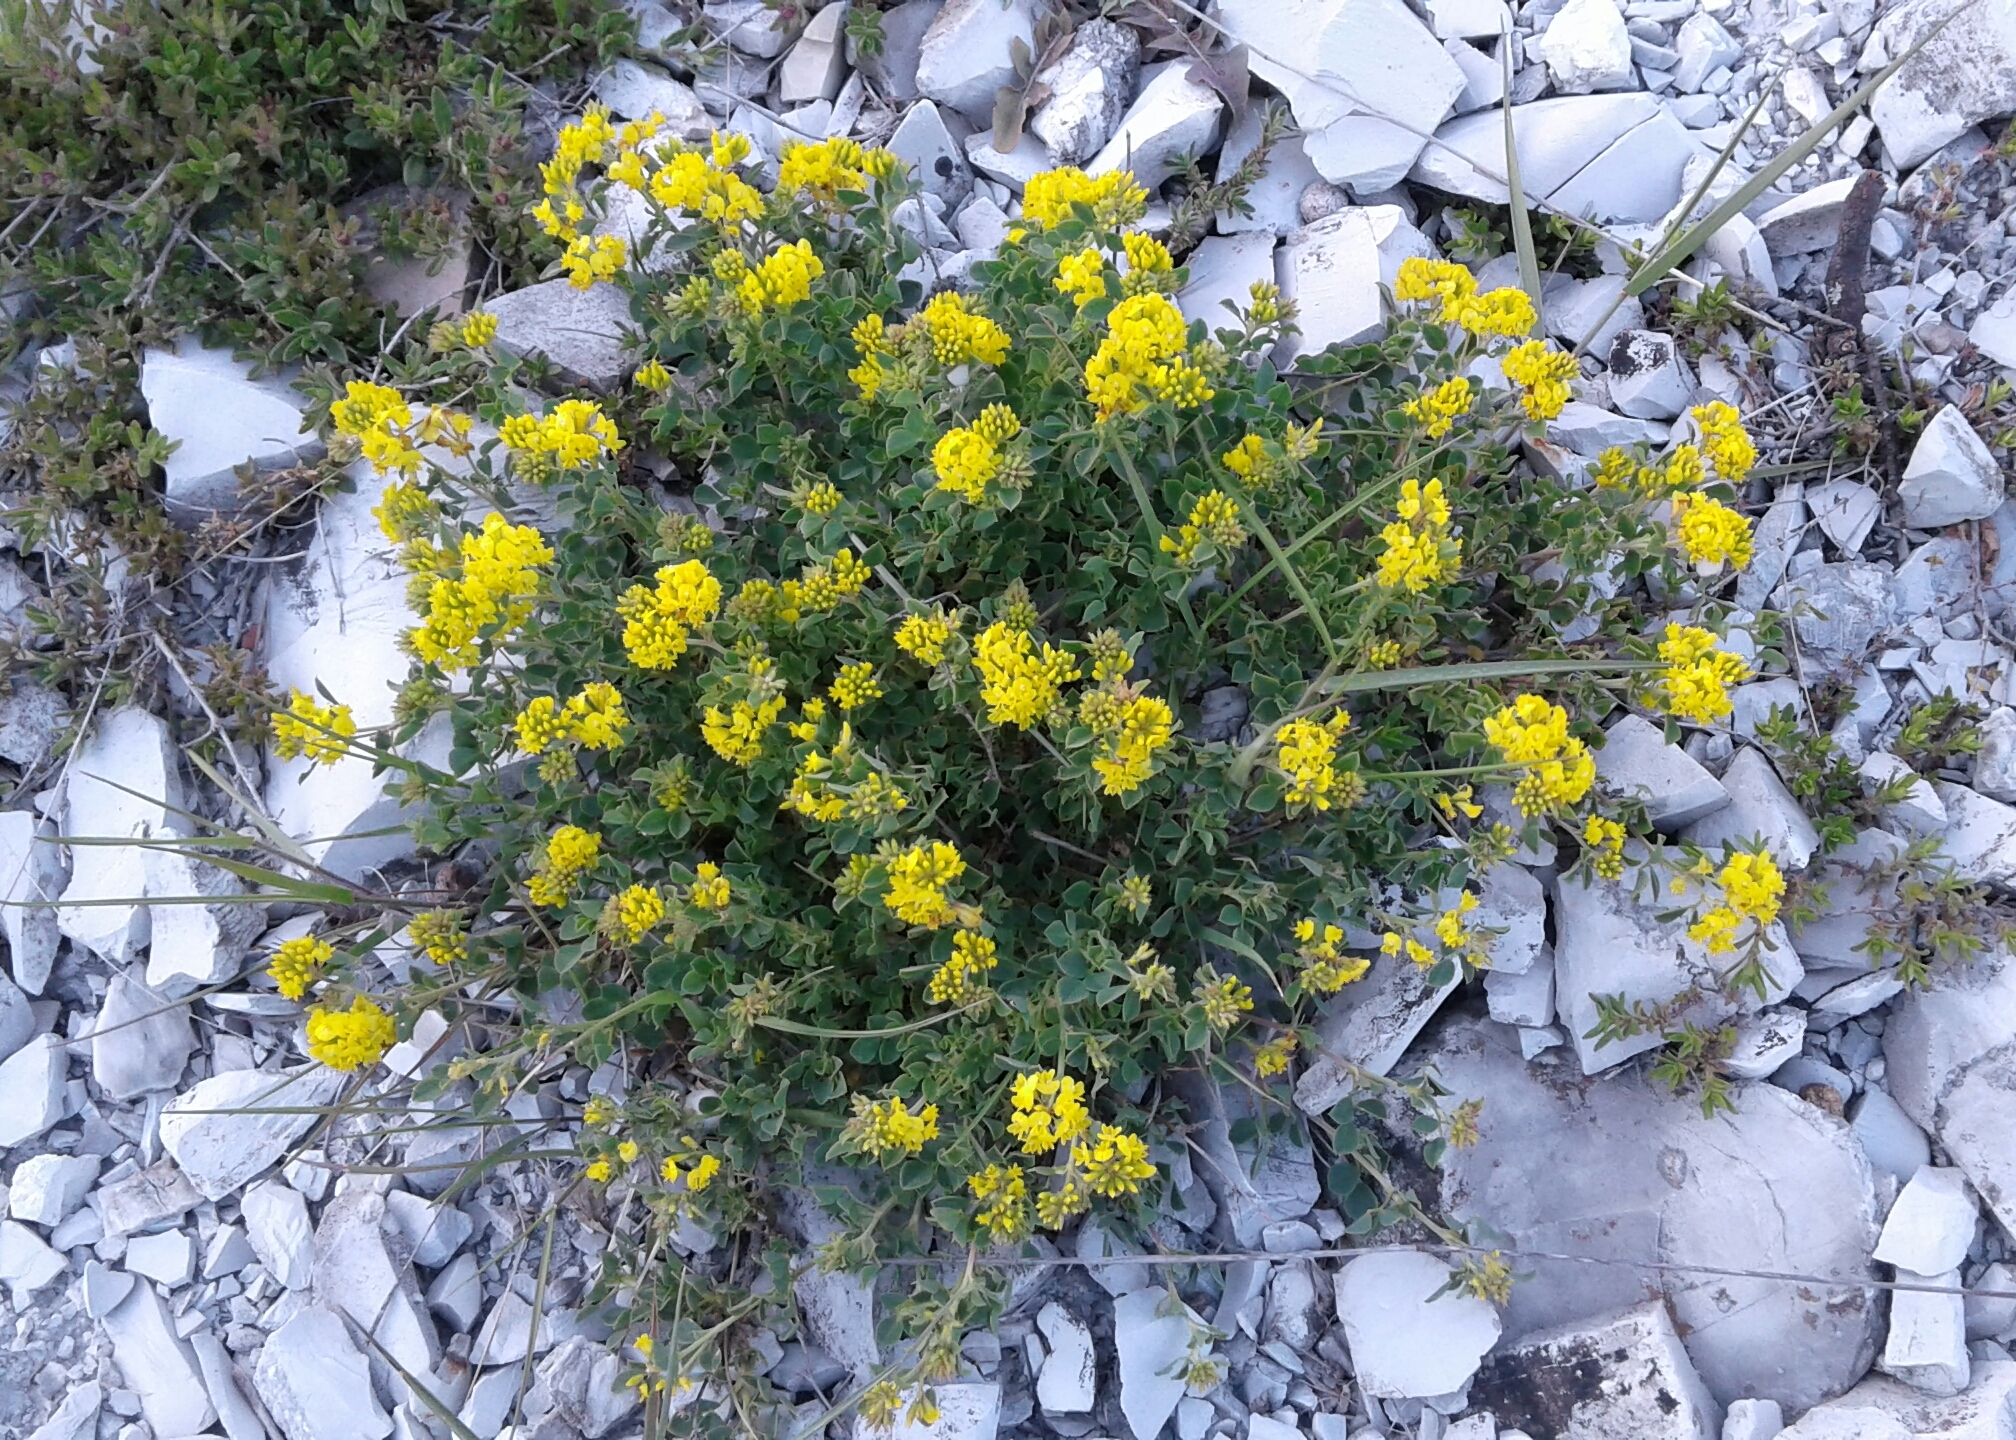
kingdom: Plantae
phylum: Tracheophyta
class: Magnoliopsida
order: Fabales
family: Fabaceae
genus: Medicago
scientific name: Medicago cretacea
